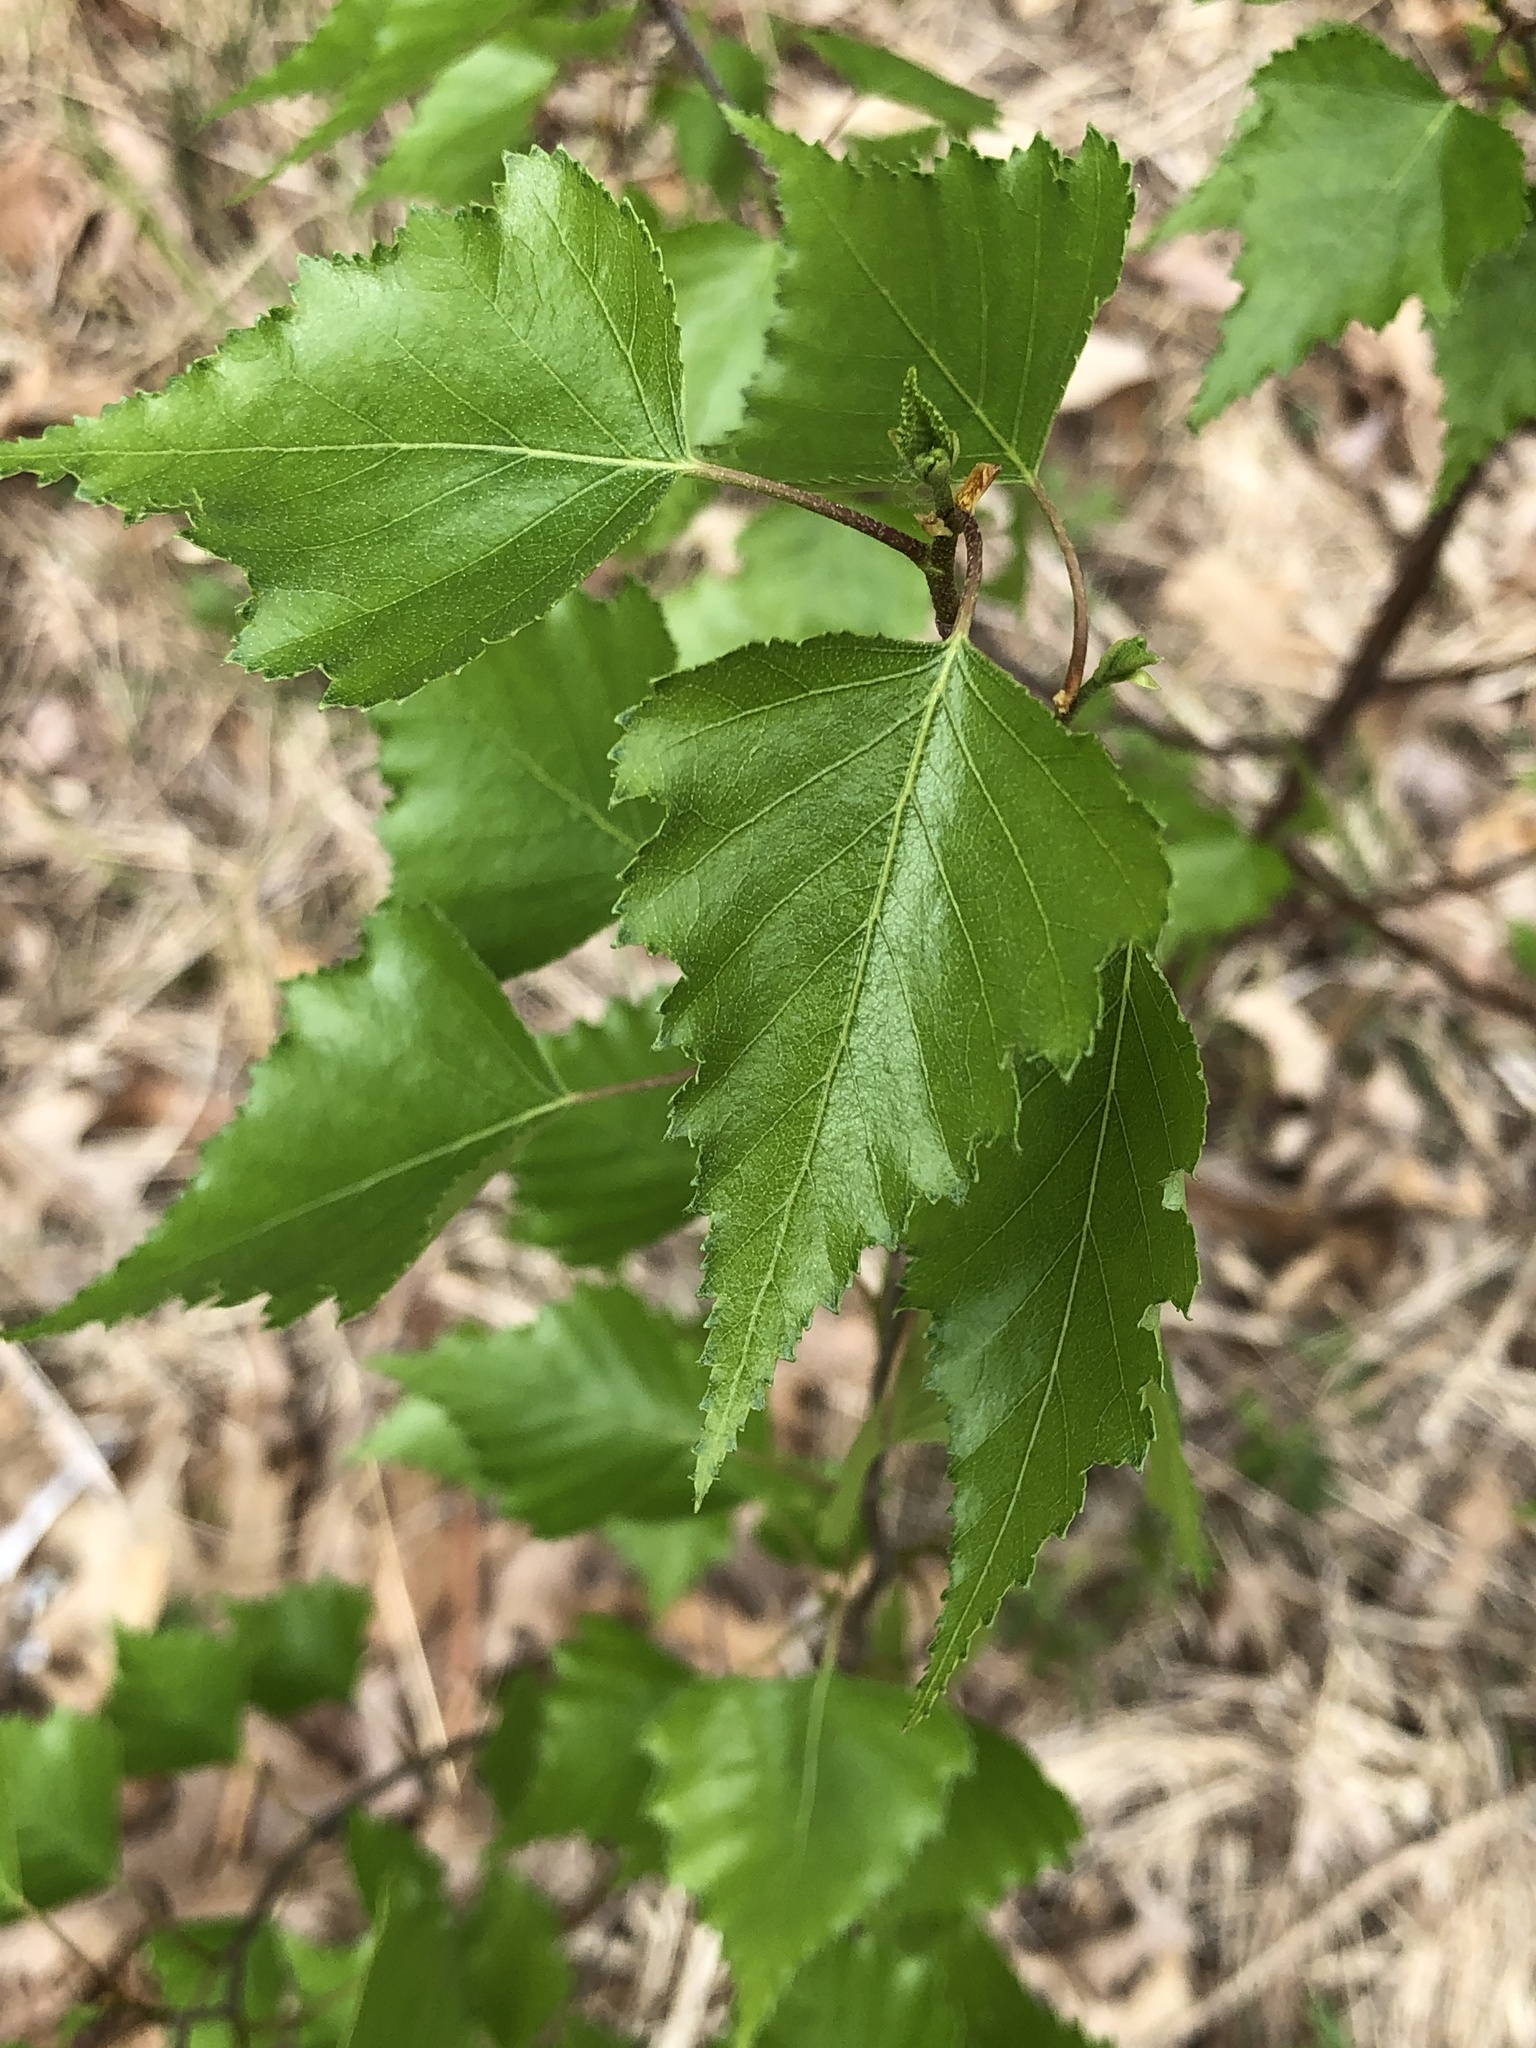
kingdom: Plantae
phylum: Tracheophyta
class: Magnoliopsida
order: Fagales
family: Betulaceae
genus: Betula
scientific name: Betula populifolia
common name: Fire birch
